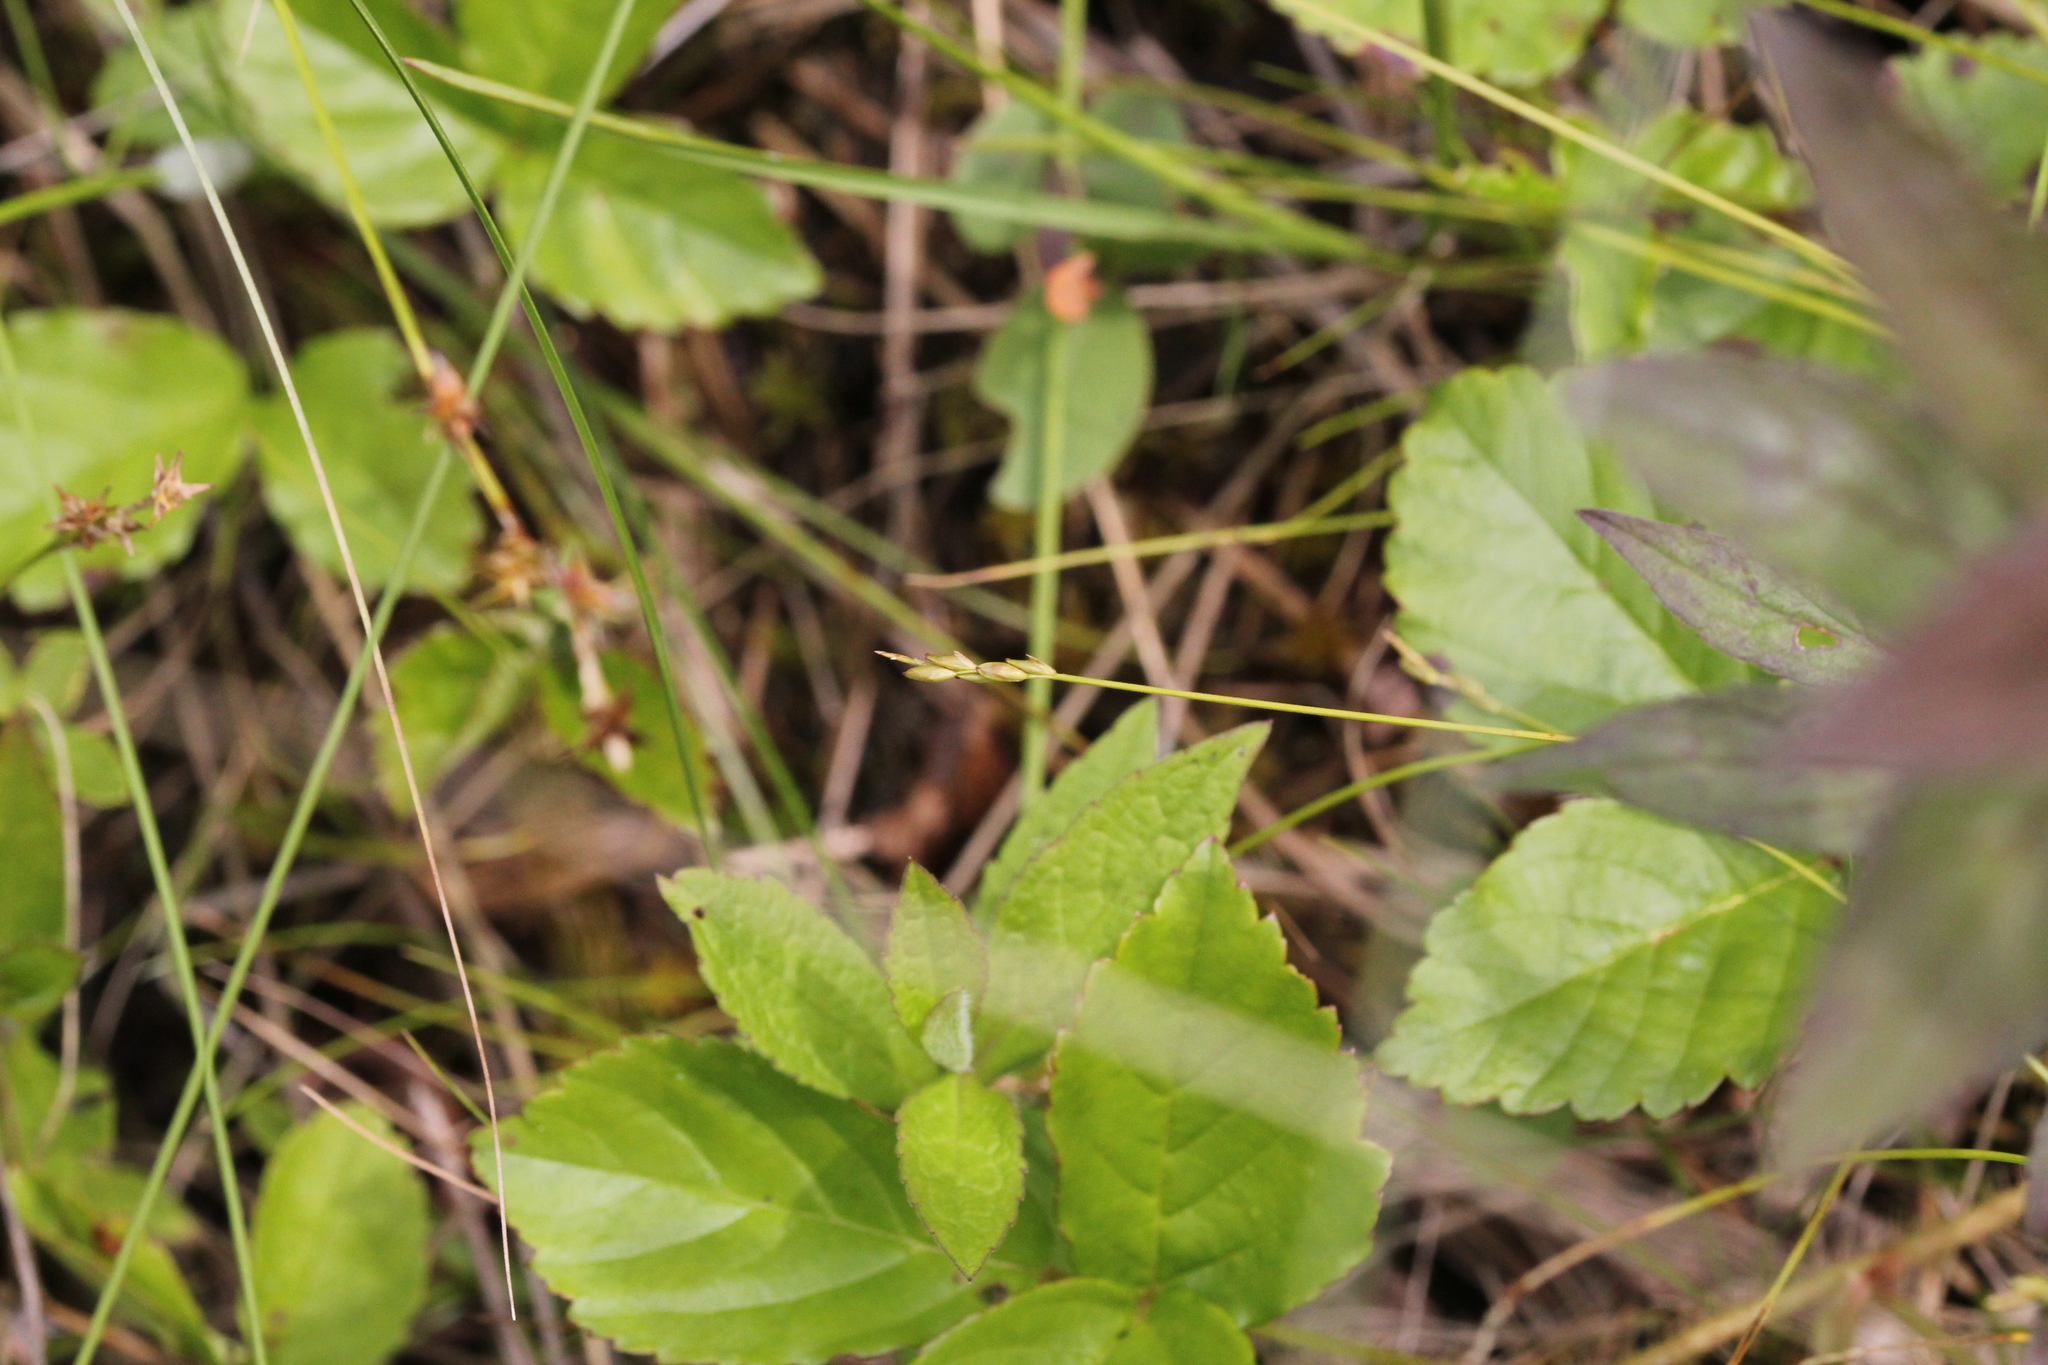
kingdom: Plantae
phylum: Tracheophyta
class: Liliopsida
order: Poales
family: Cyperaceae
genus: Carex
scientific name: Carex leptalea
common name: Bristly-stalked sedge
